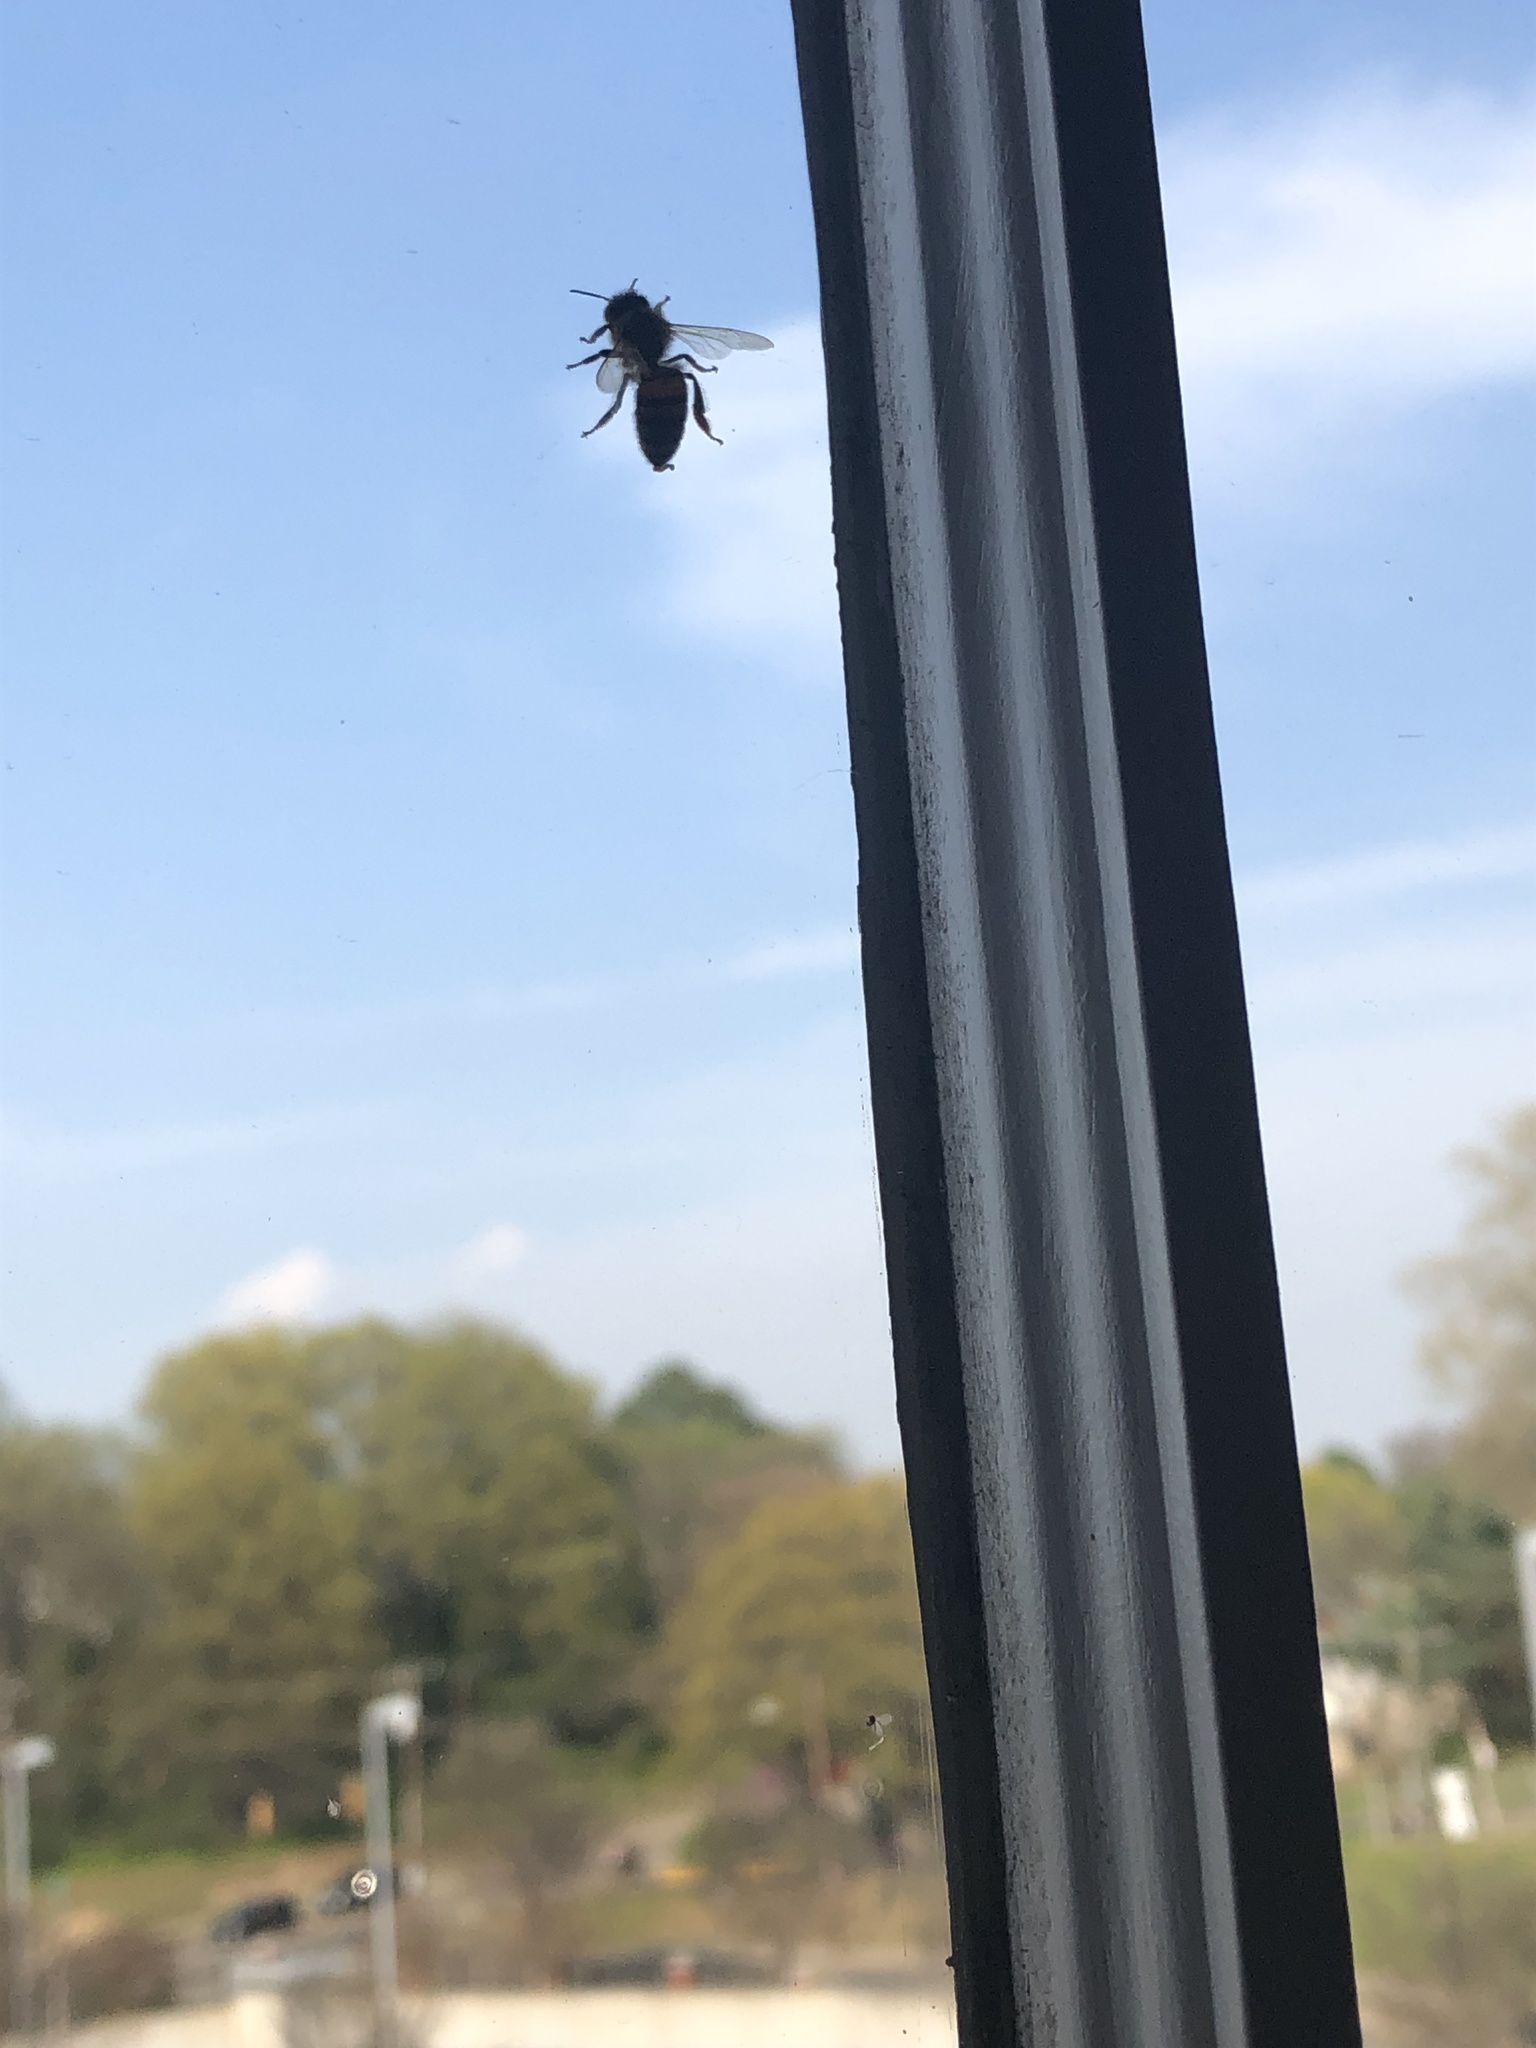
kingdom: Animalia
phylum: Arthropoda
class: Insecta
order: Hymenoptera
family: Apidae
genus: Apis
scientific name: Apis mellifera
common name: Honey bee
